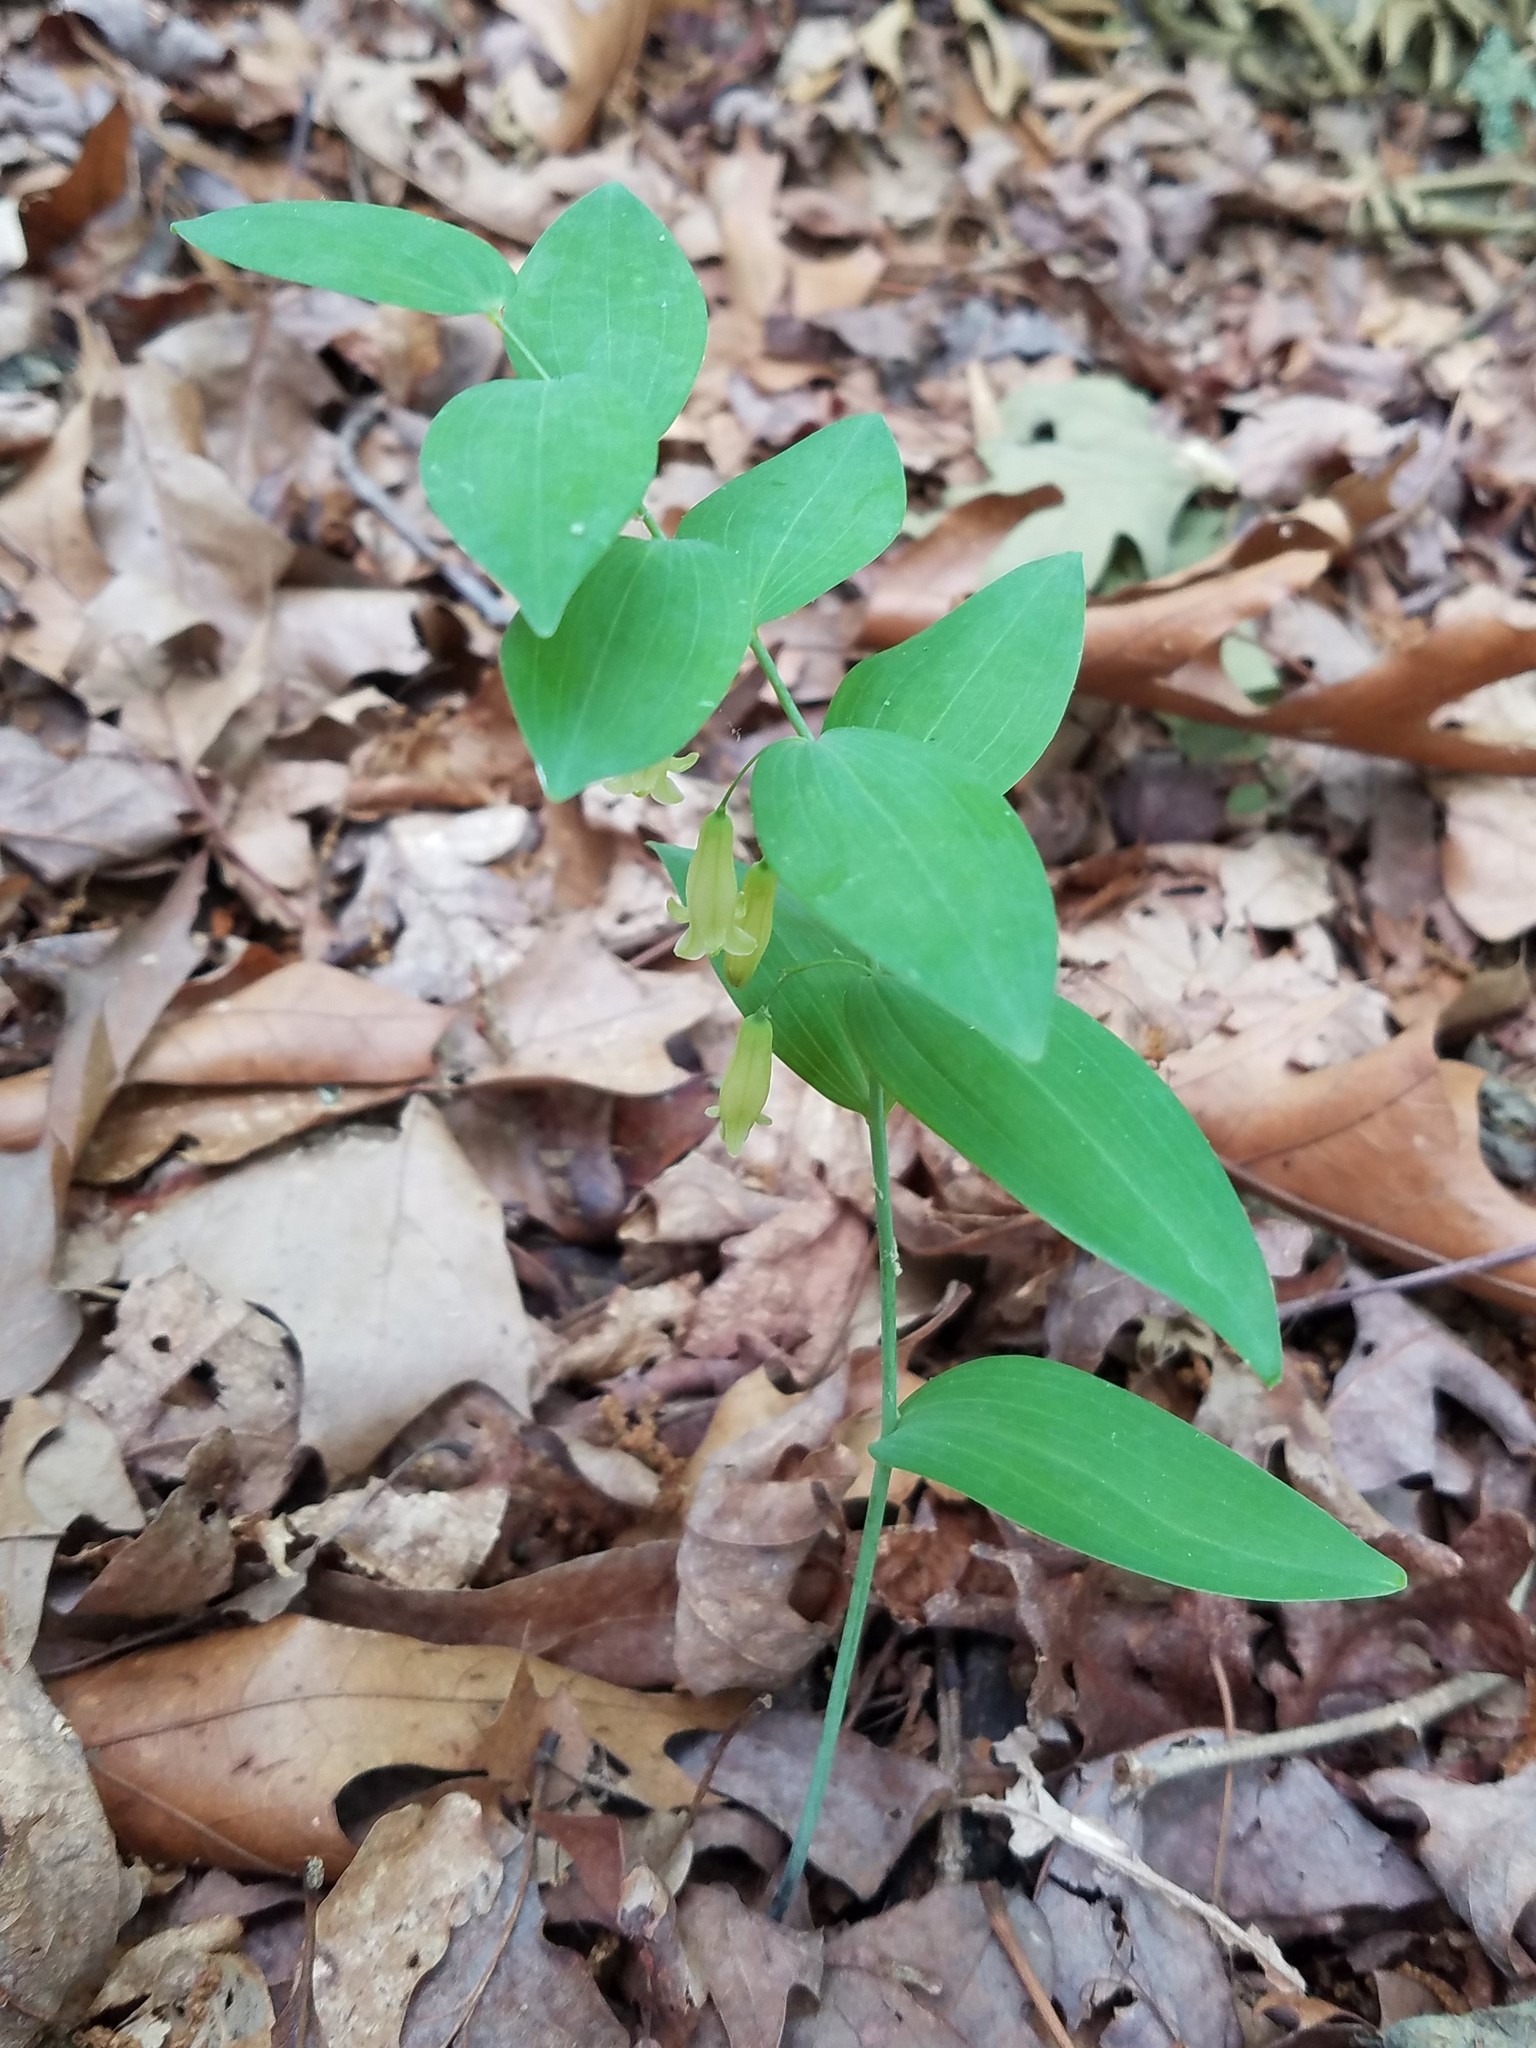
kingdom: Plantae
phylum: Tracheophyta
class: Liliopsida
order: Asparagales
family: Asparagaceae
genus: Polygonatum
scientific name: Polygonatum biflorum
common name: American solomon's-seal
